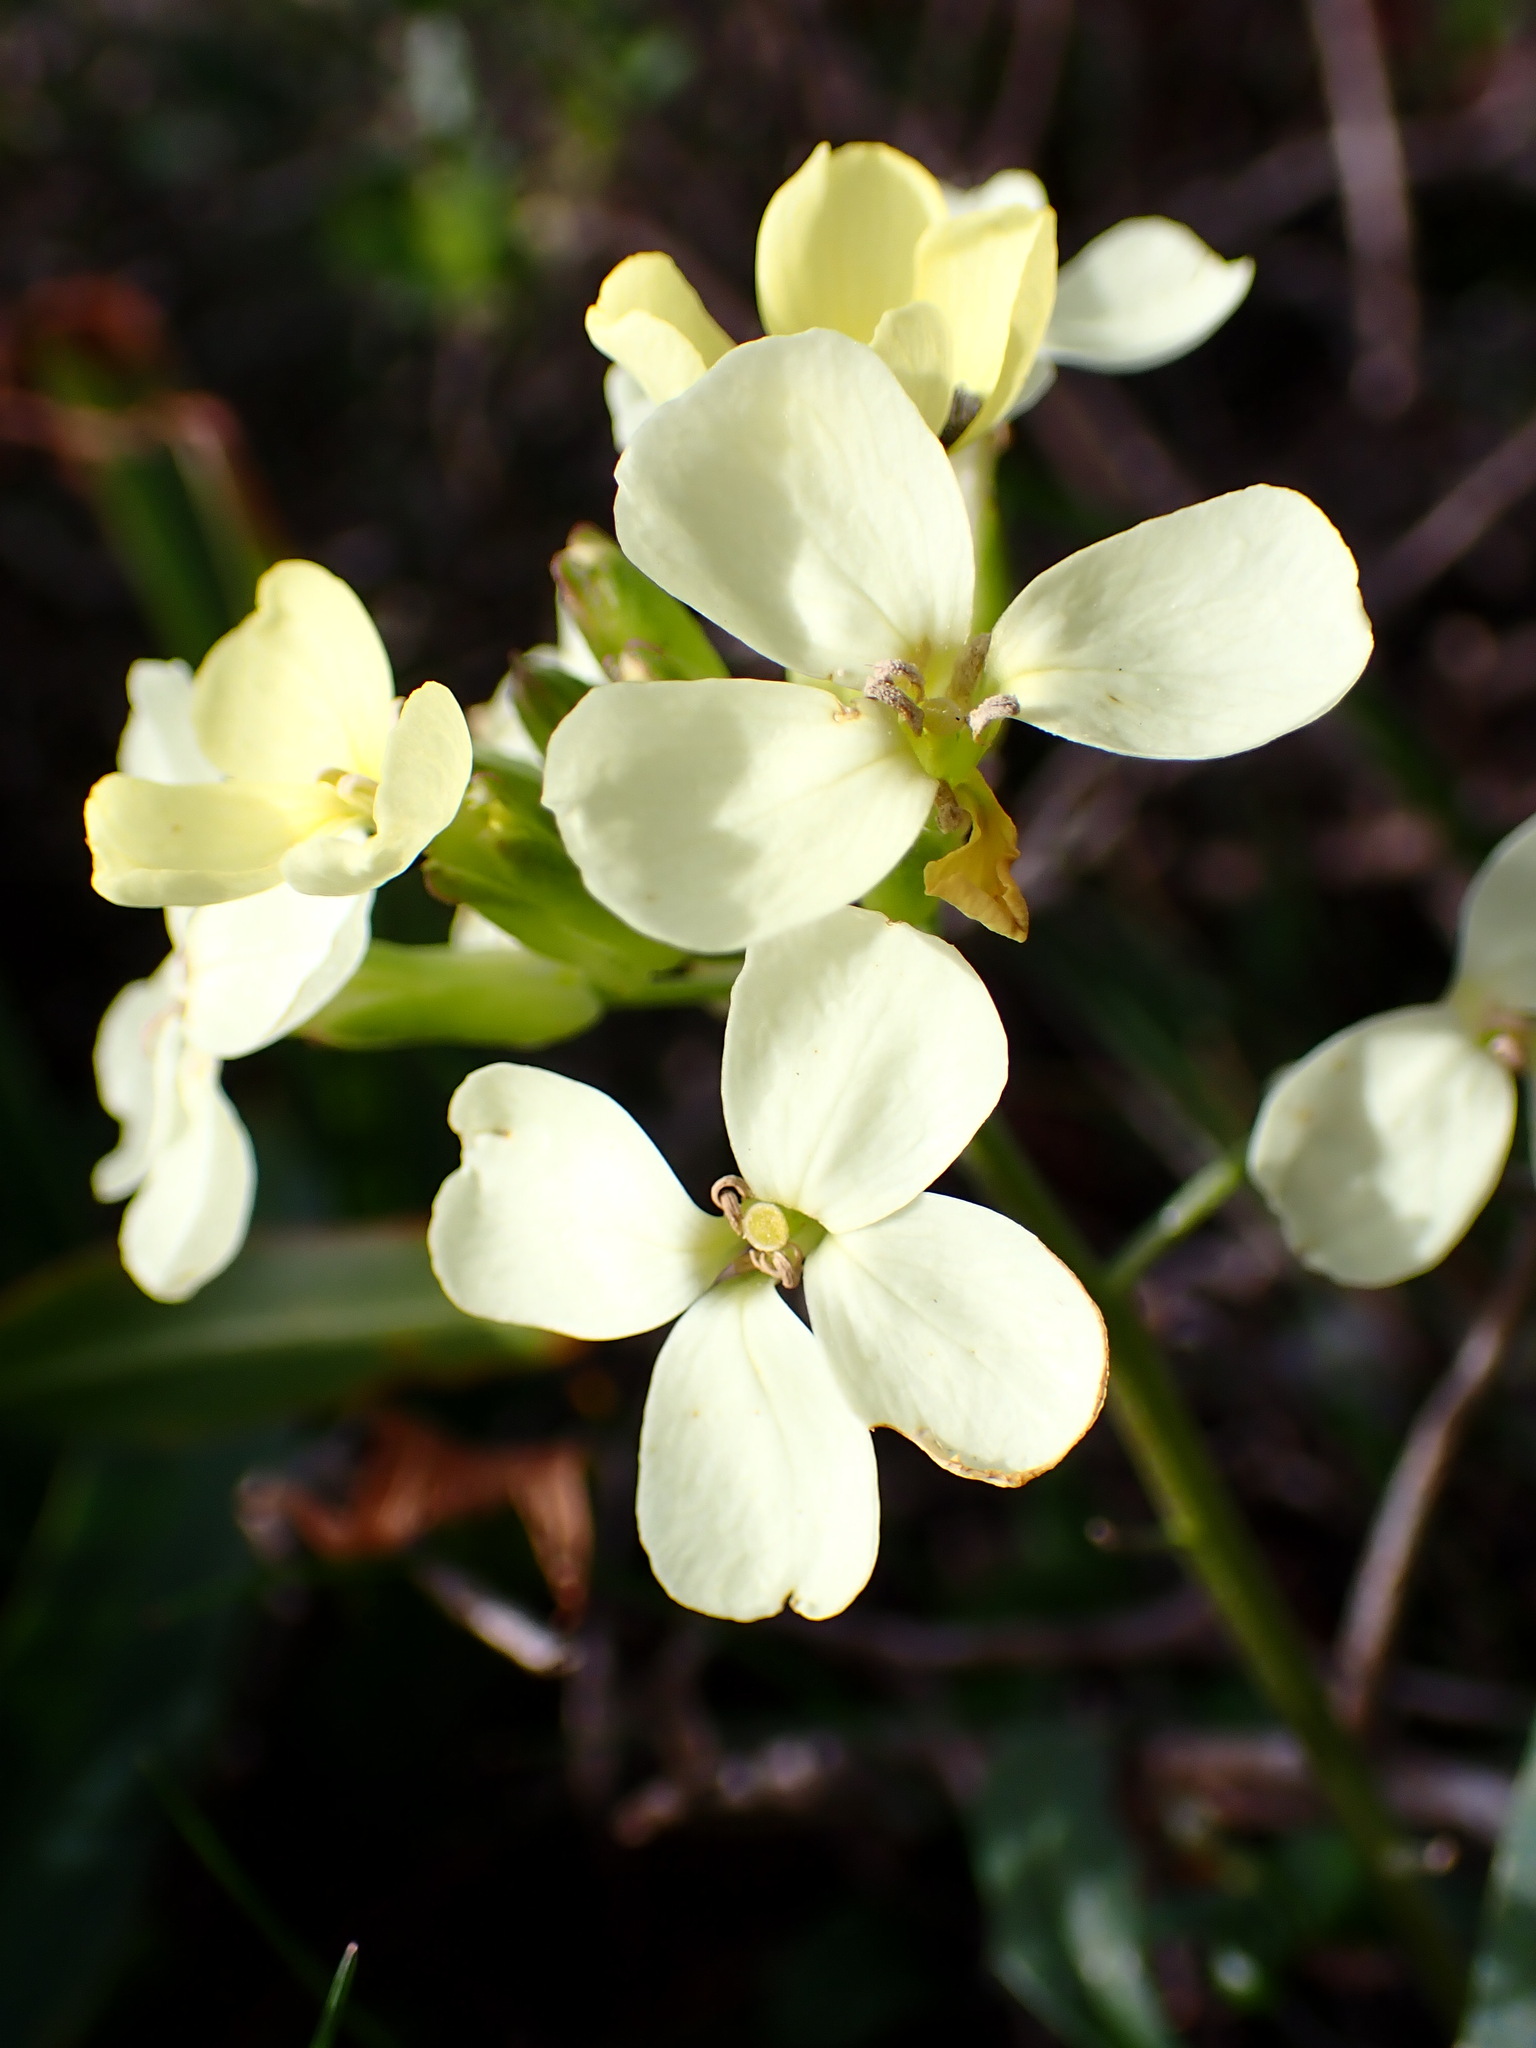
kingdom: Plantae
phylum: Tracheophyta
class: Magnoliopsida
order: Brassicales
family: Brassicaceae
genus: Erysimum
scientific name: Erysimum franciscanum
